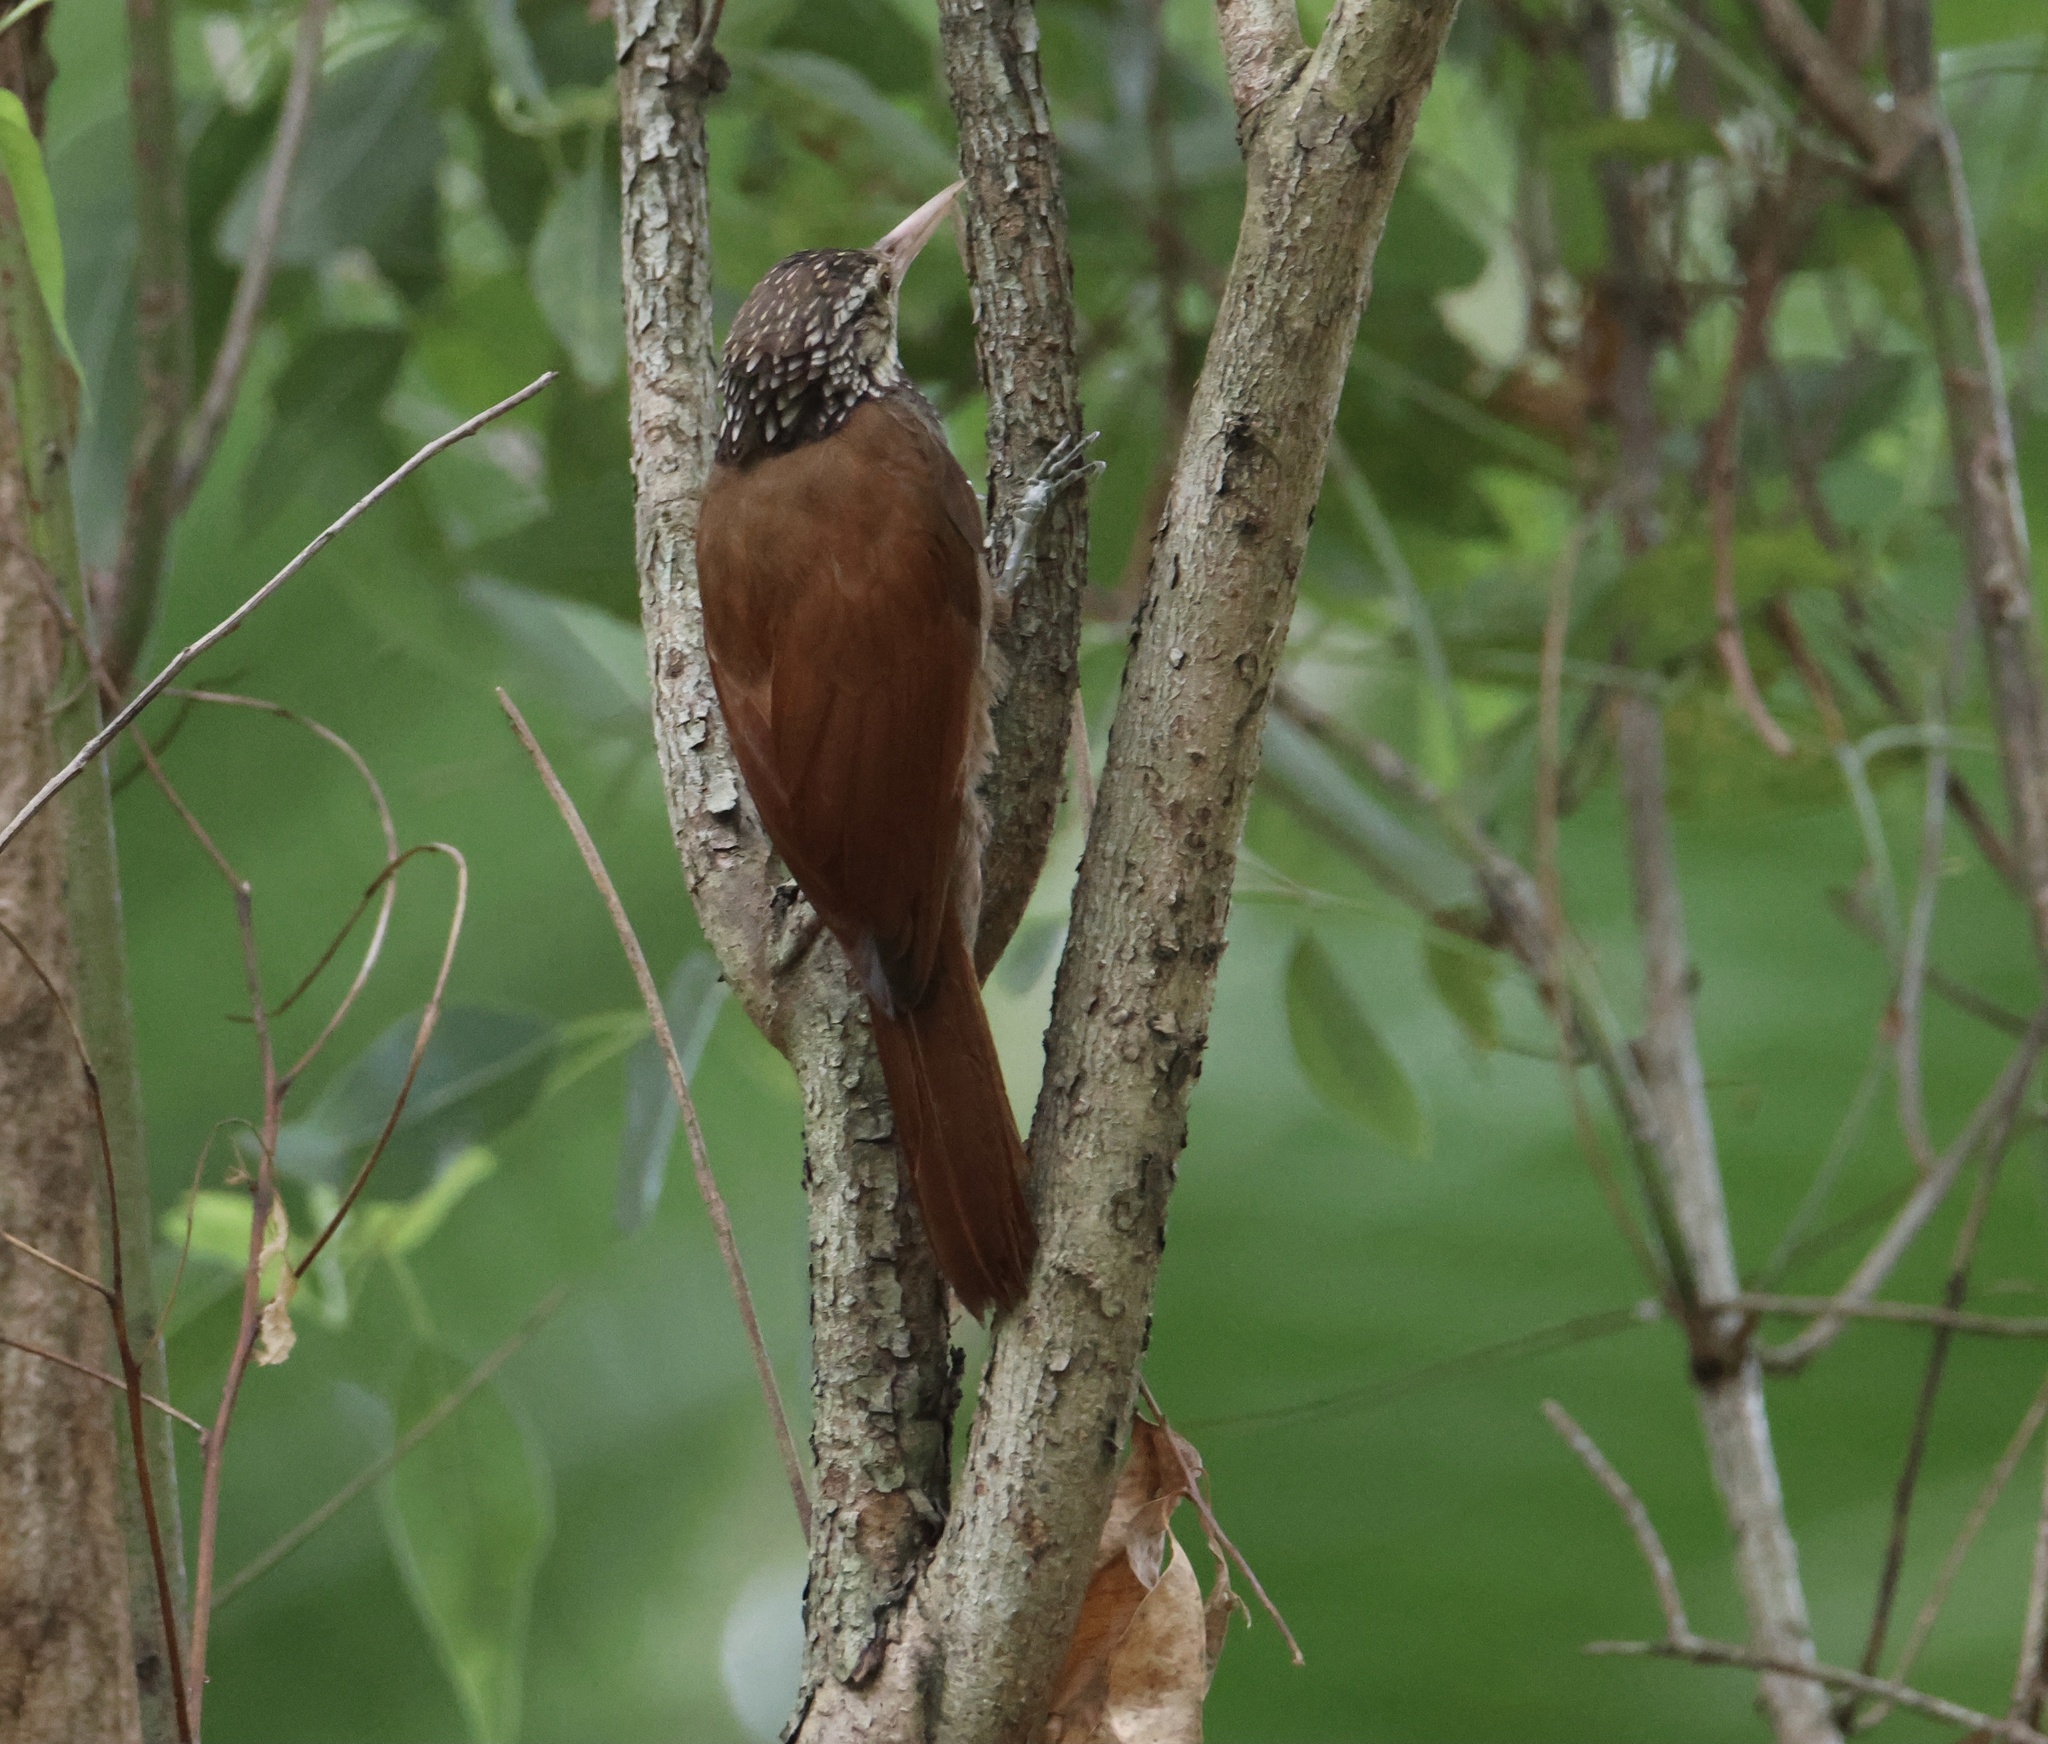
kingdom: Animalia
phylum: Chordata
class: Aves
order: Passeriformes
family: Furnariidae
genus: Xiphorhynchus
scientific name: Xiphorhynchus picus
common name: Straight-billed woodcreeper
